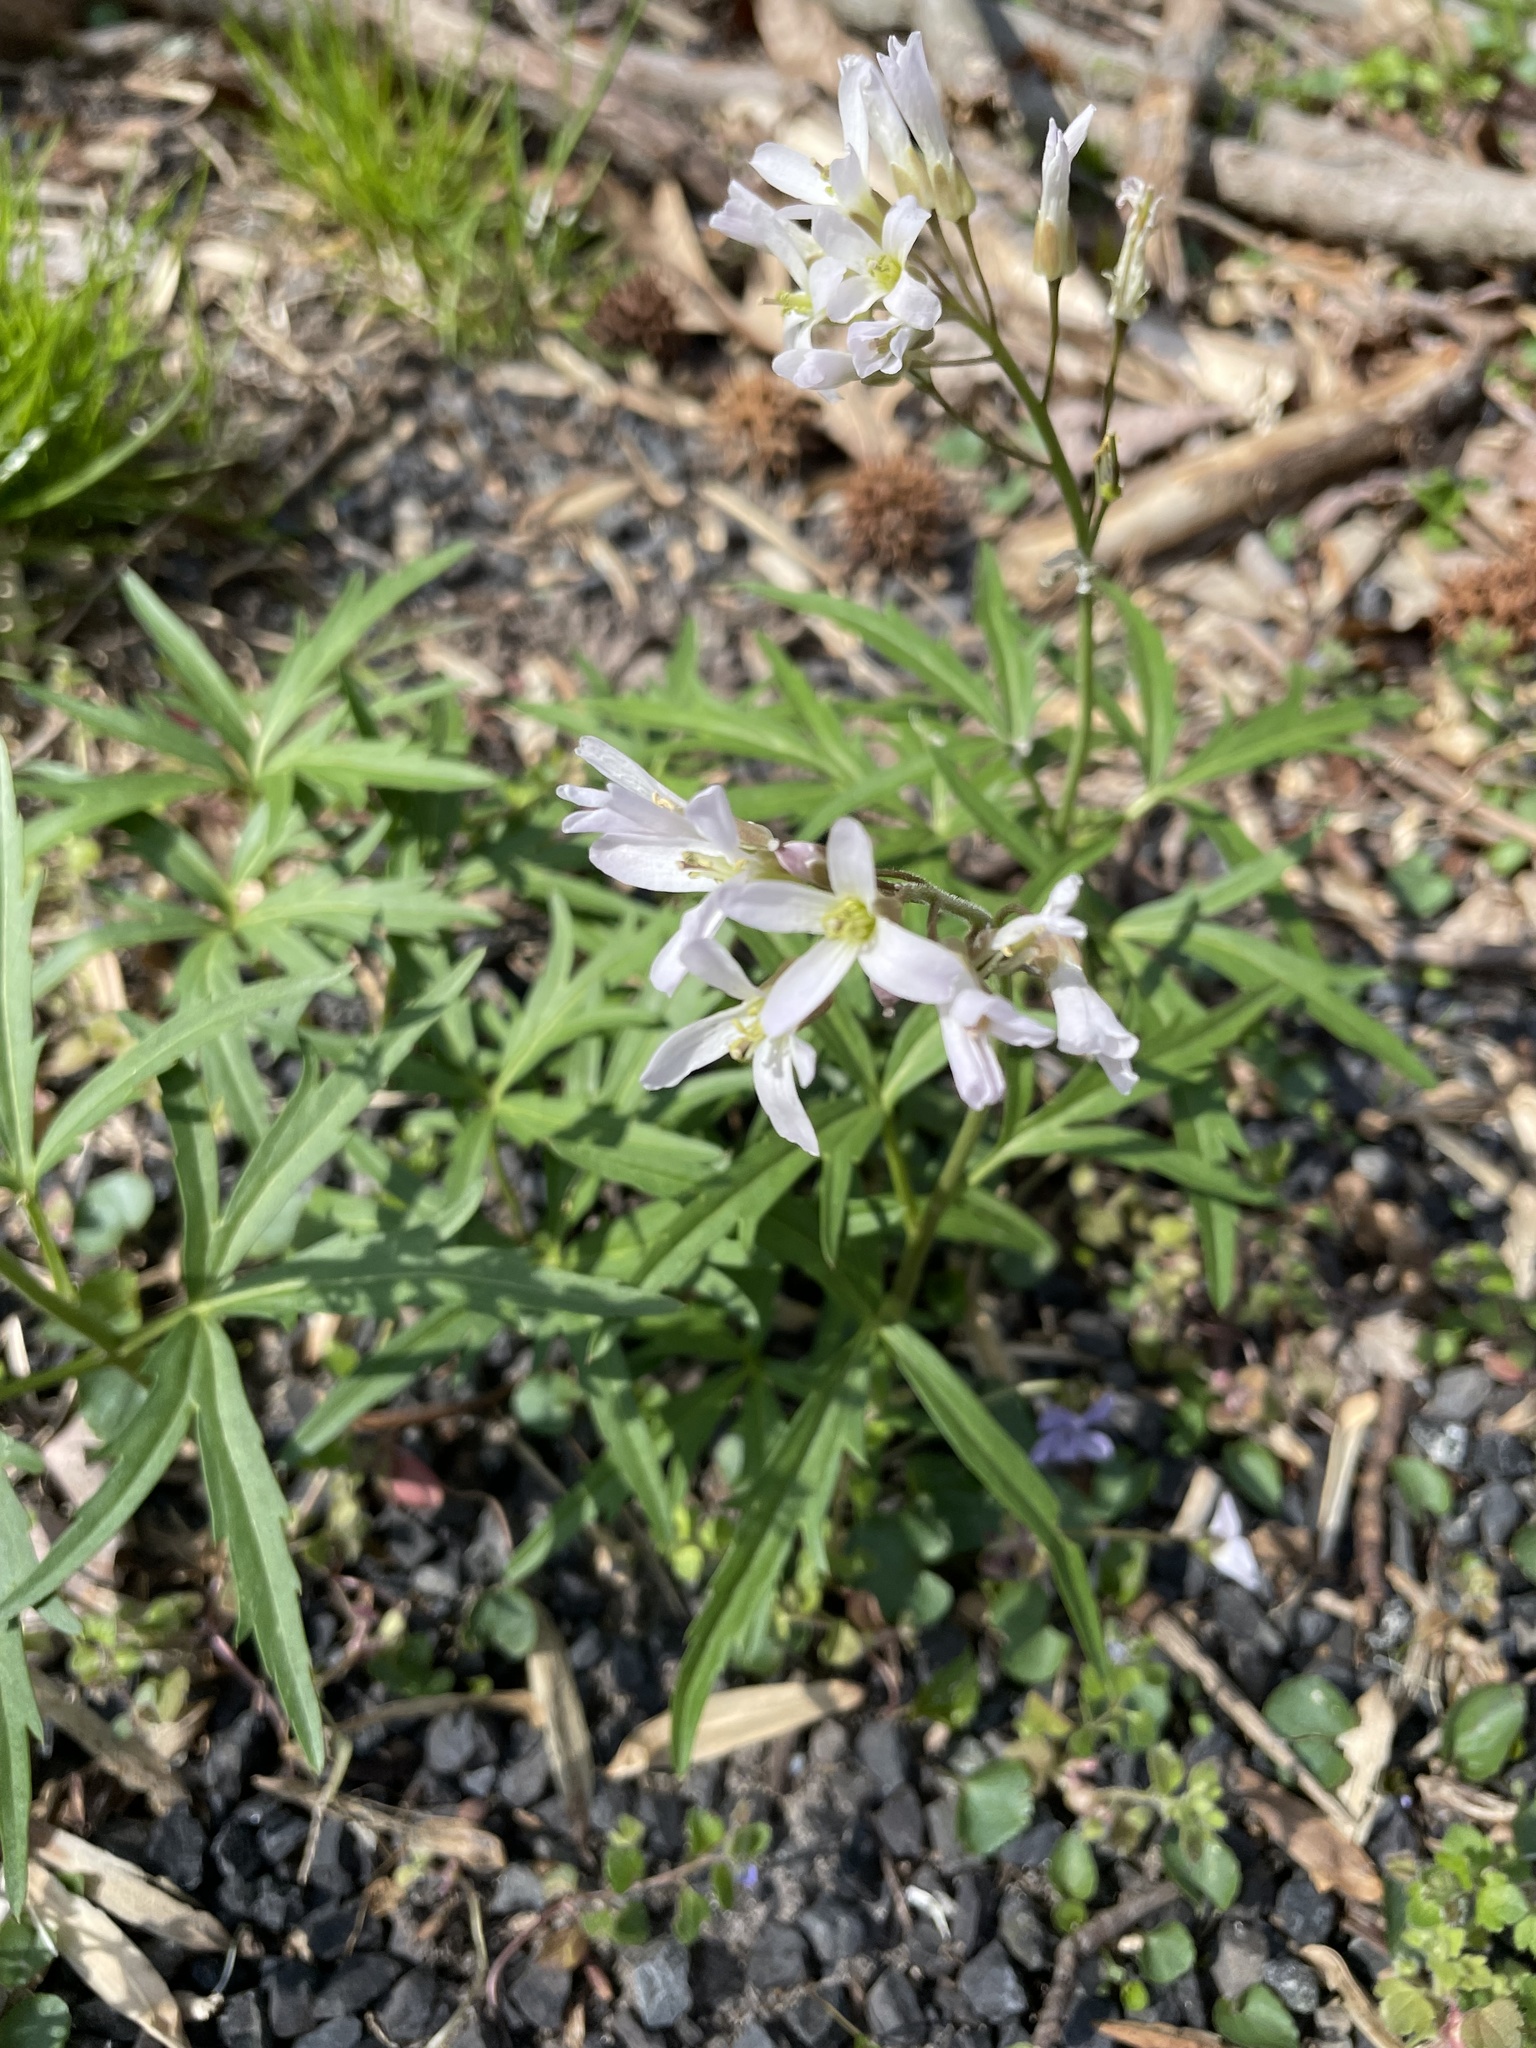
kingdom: Plantae
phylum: Tracheophyta
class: Magnoliopsida
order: Brassicales
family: Brassicaceae
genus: Cardamine
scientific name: Cardamine concatenata
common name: Cut-leaf toothcup
